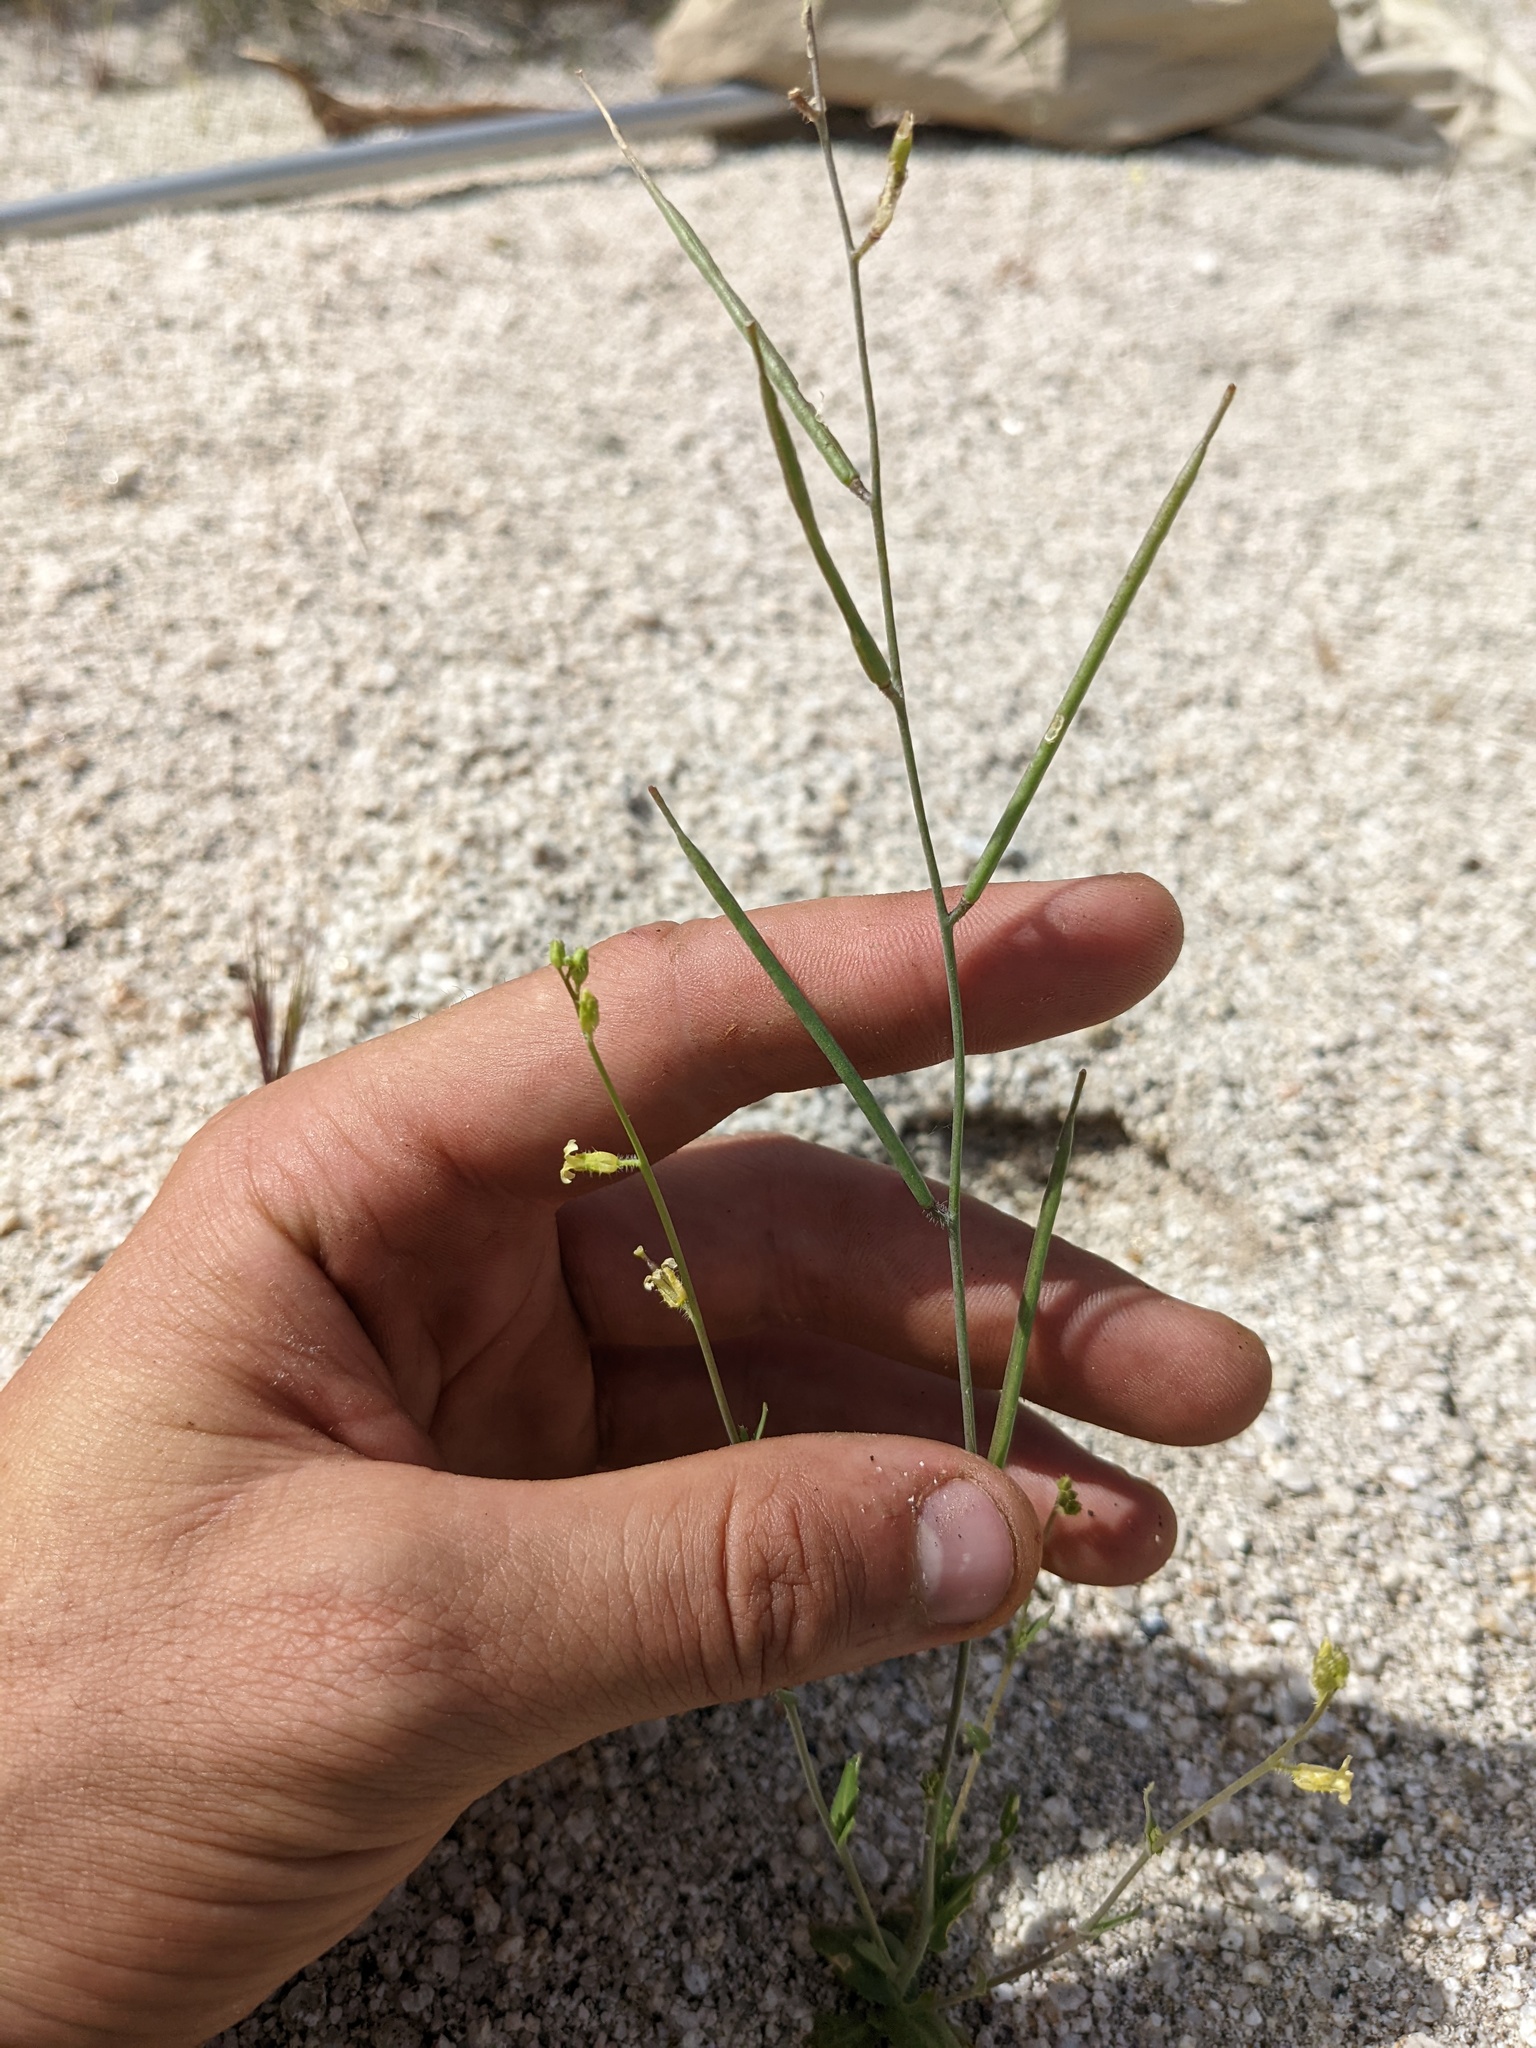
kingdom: Plantae
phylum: Tracheophyta
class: Magnoliopsida
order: Brassicales
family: Brassicaceae
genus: Streptanthus
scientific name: Streptanthus simulans
